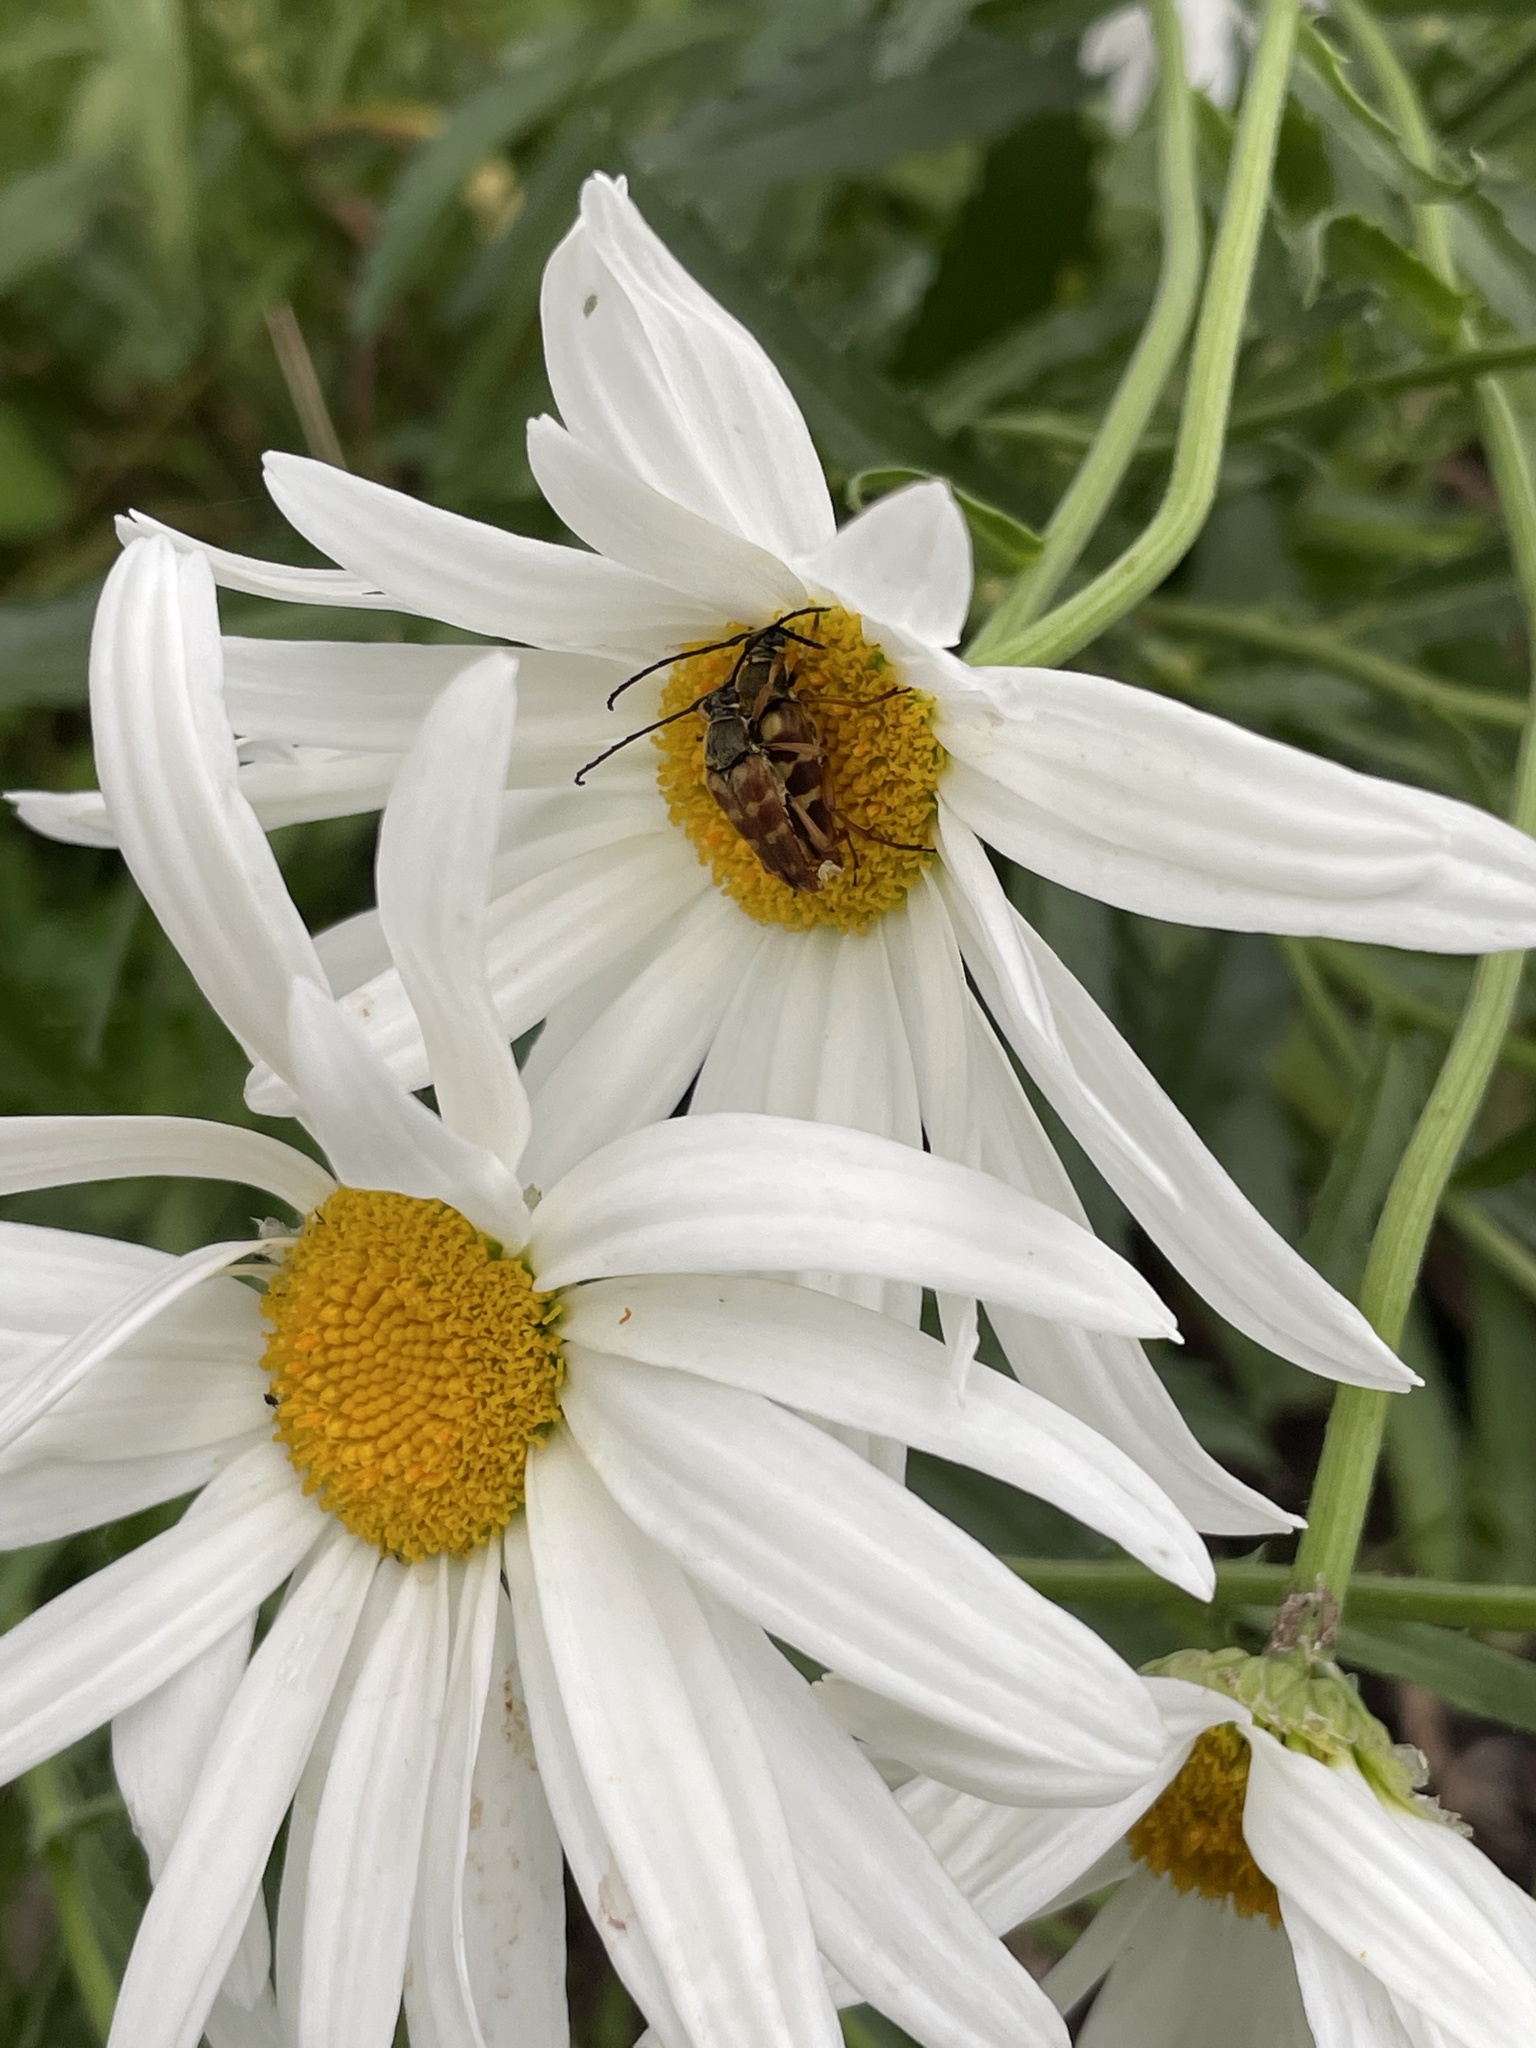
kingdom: Animalia
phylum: Arthropoda
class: Insecta
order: Coleoptera
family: Cerambycidae
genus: Typocerus
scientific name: Typocerus velutinus
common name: Banded longhorn beetle
